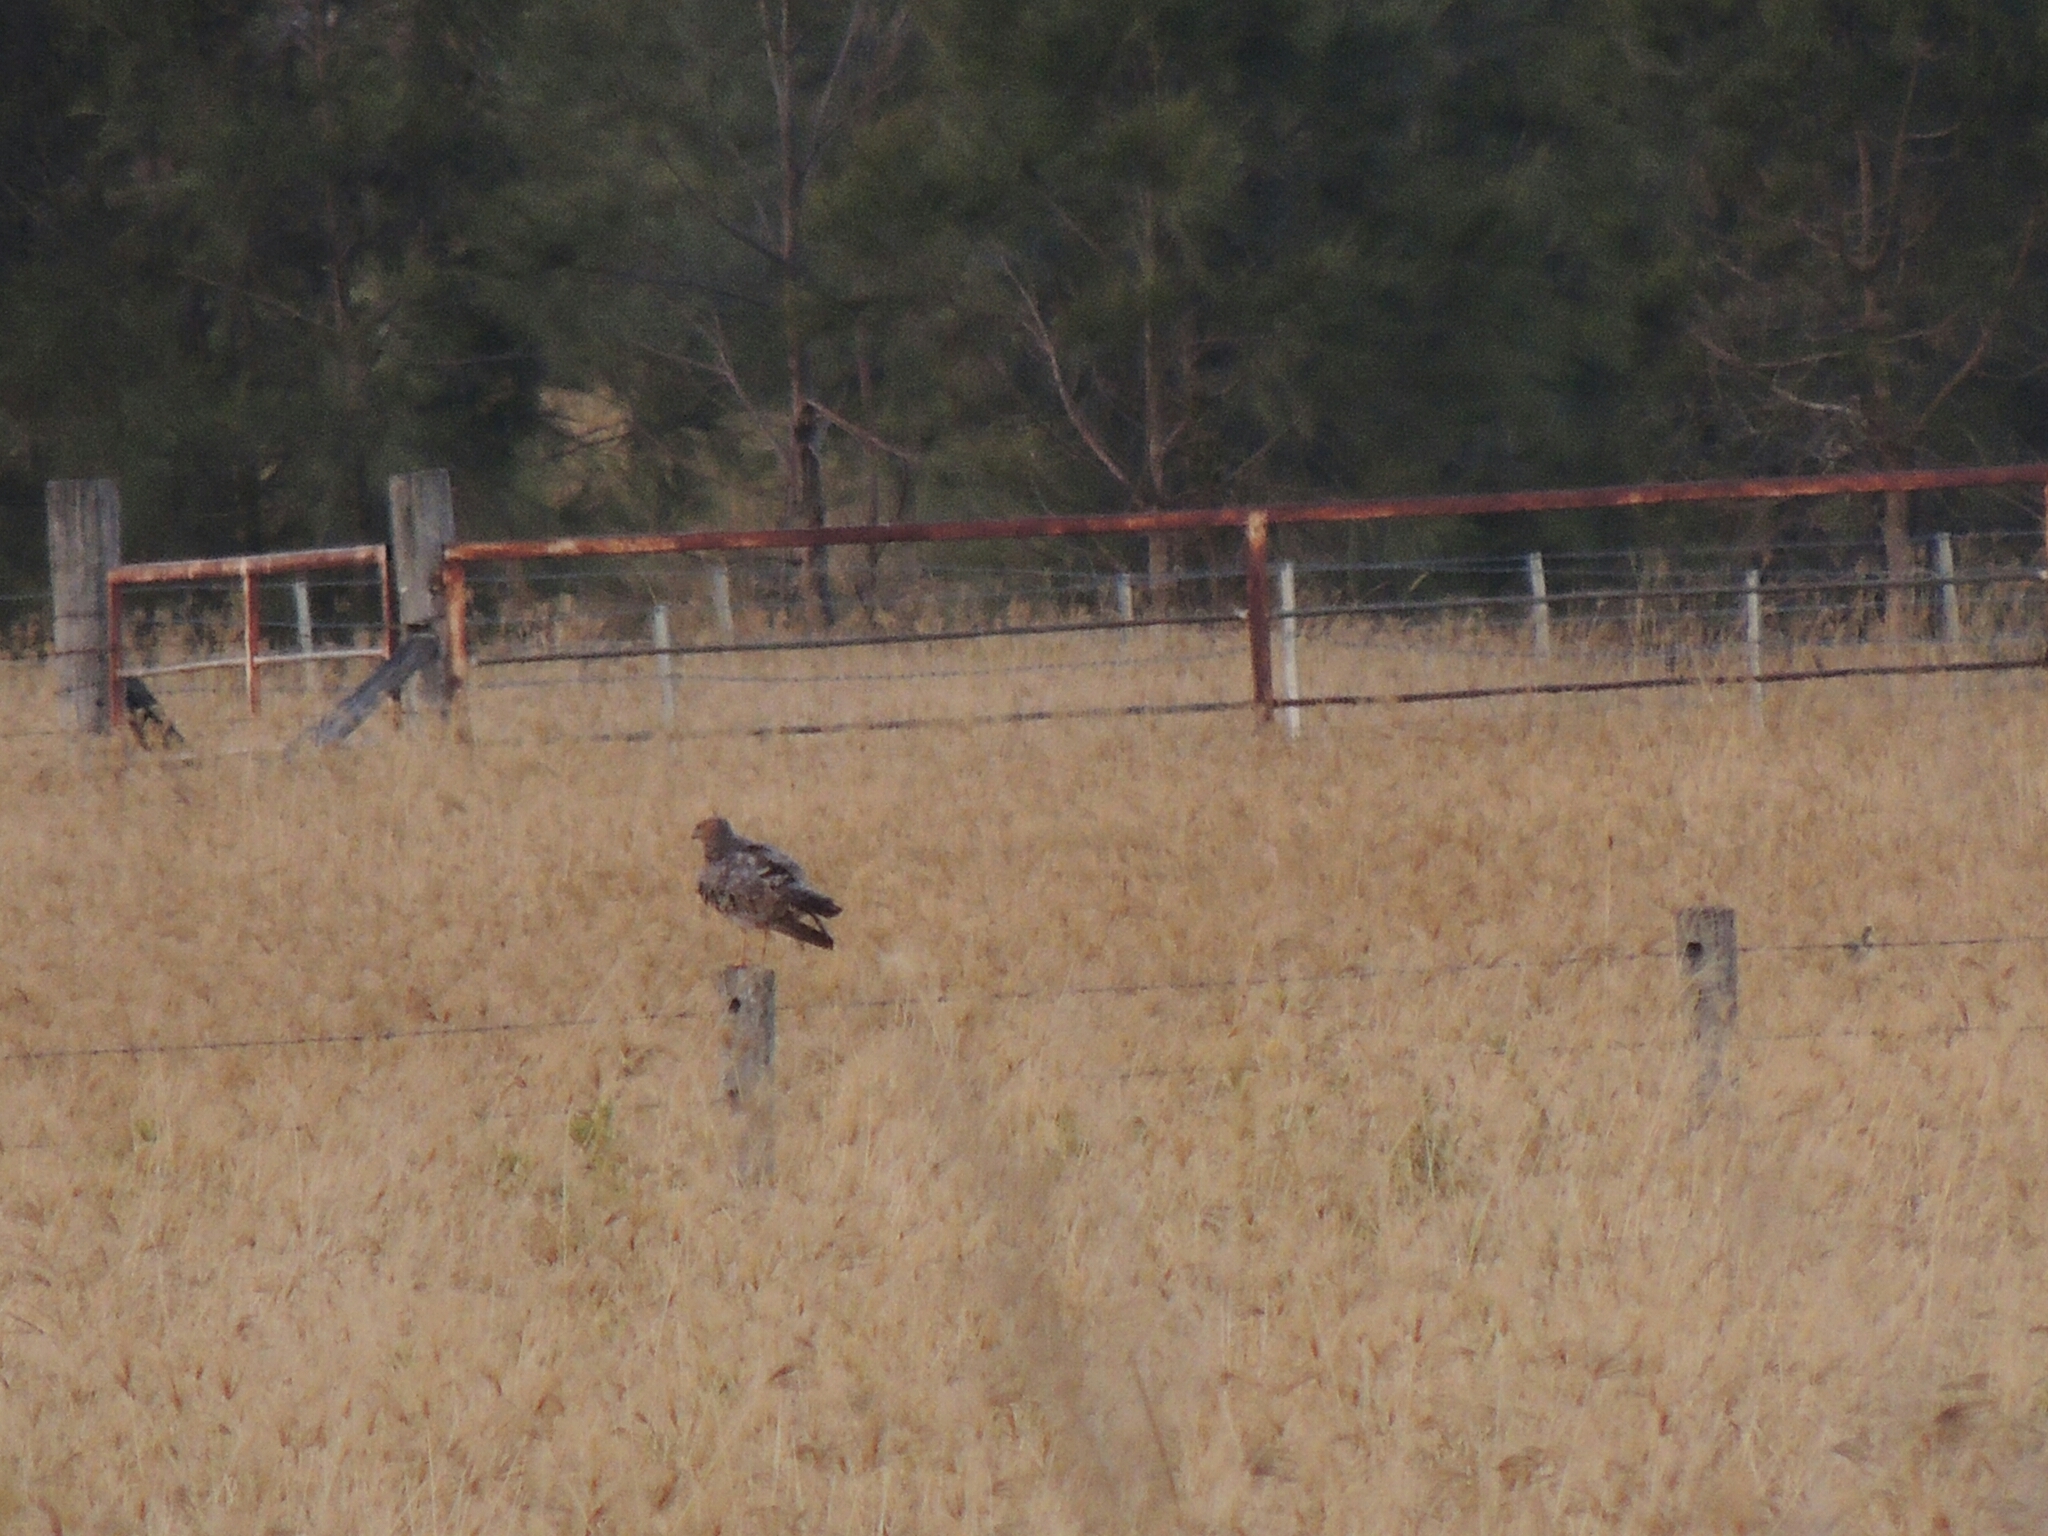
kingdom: Animalia
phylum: Chordata
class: Aves
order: Accipitriformes
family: Accipitridae
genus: Circus
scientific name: Circus assimilis
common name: Spotted harrier
